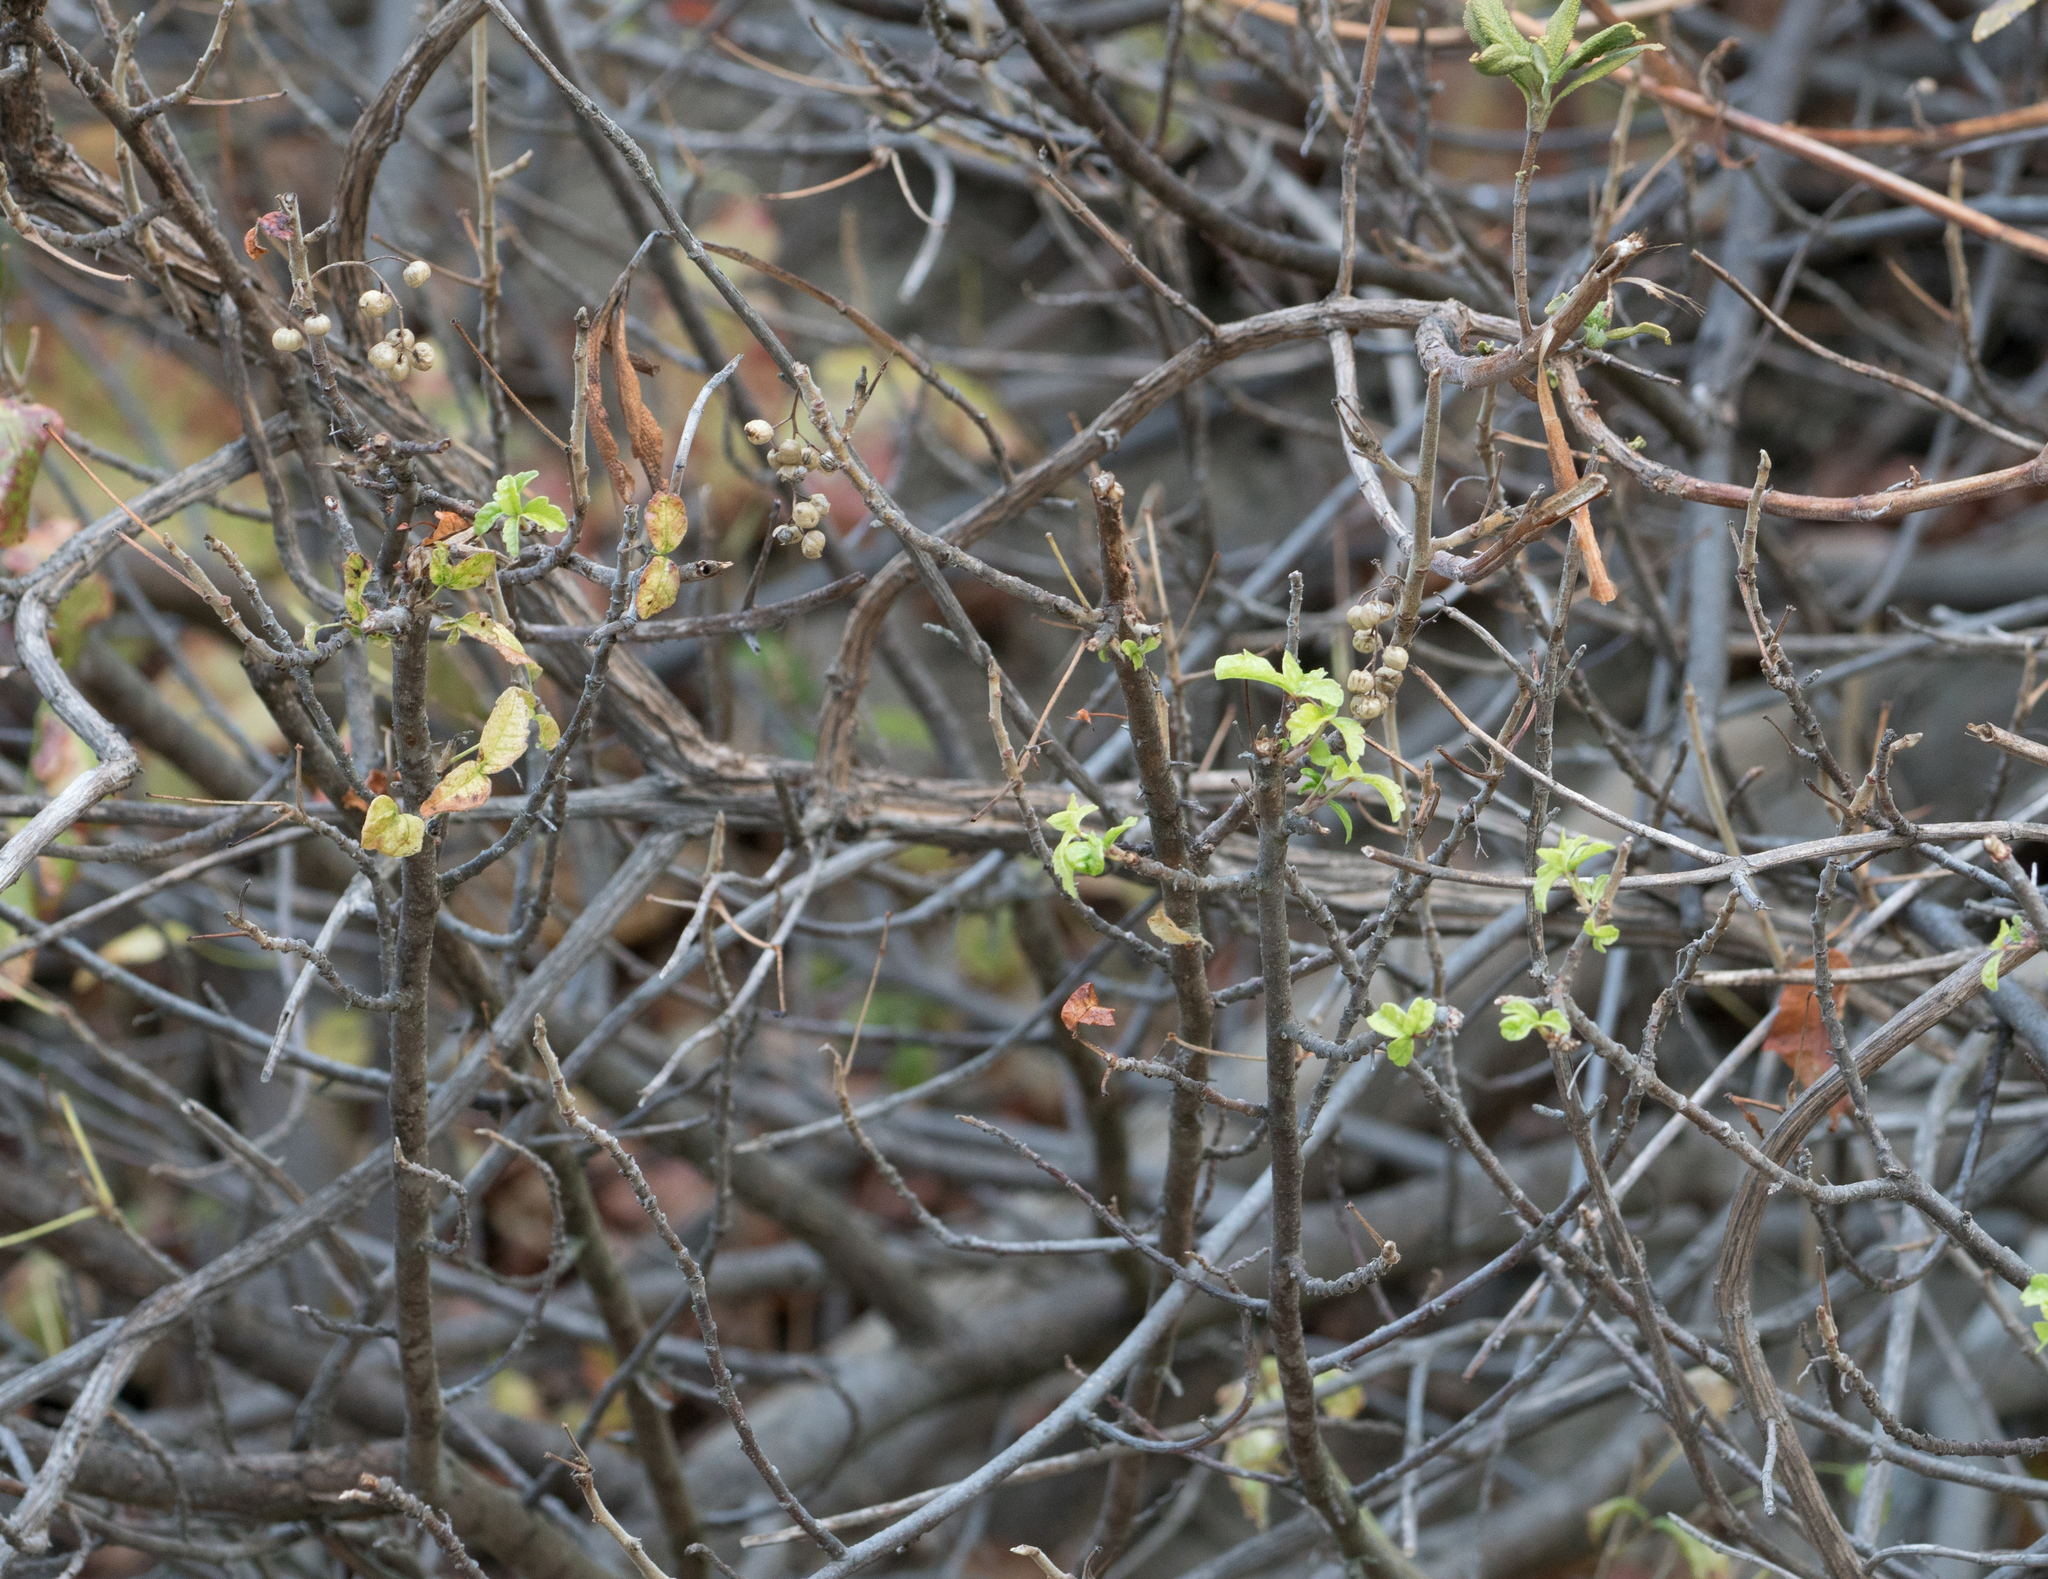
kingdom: Plantae
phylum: Tracheophyta
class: Magnoliopsida
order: Sapindales
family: Anacardiaceae
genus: Toxicodendron
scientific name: Toxicodendron diversilobum
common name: Pacific poison-oak
